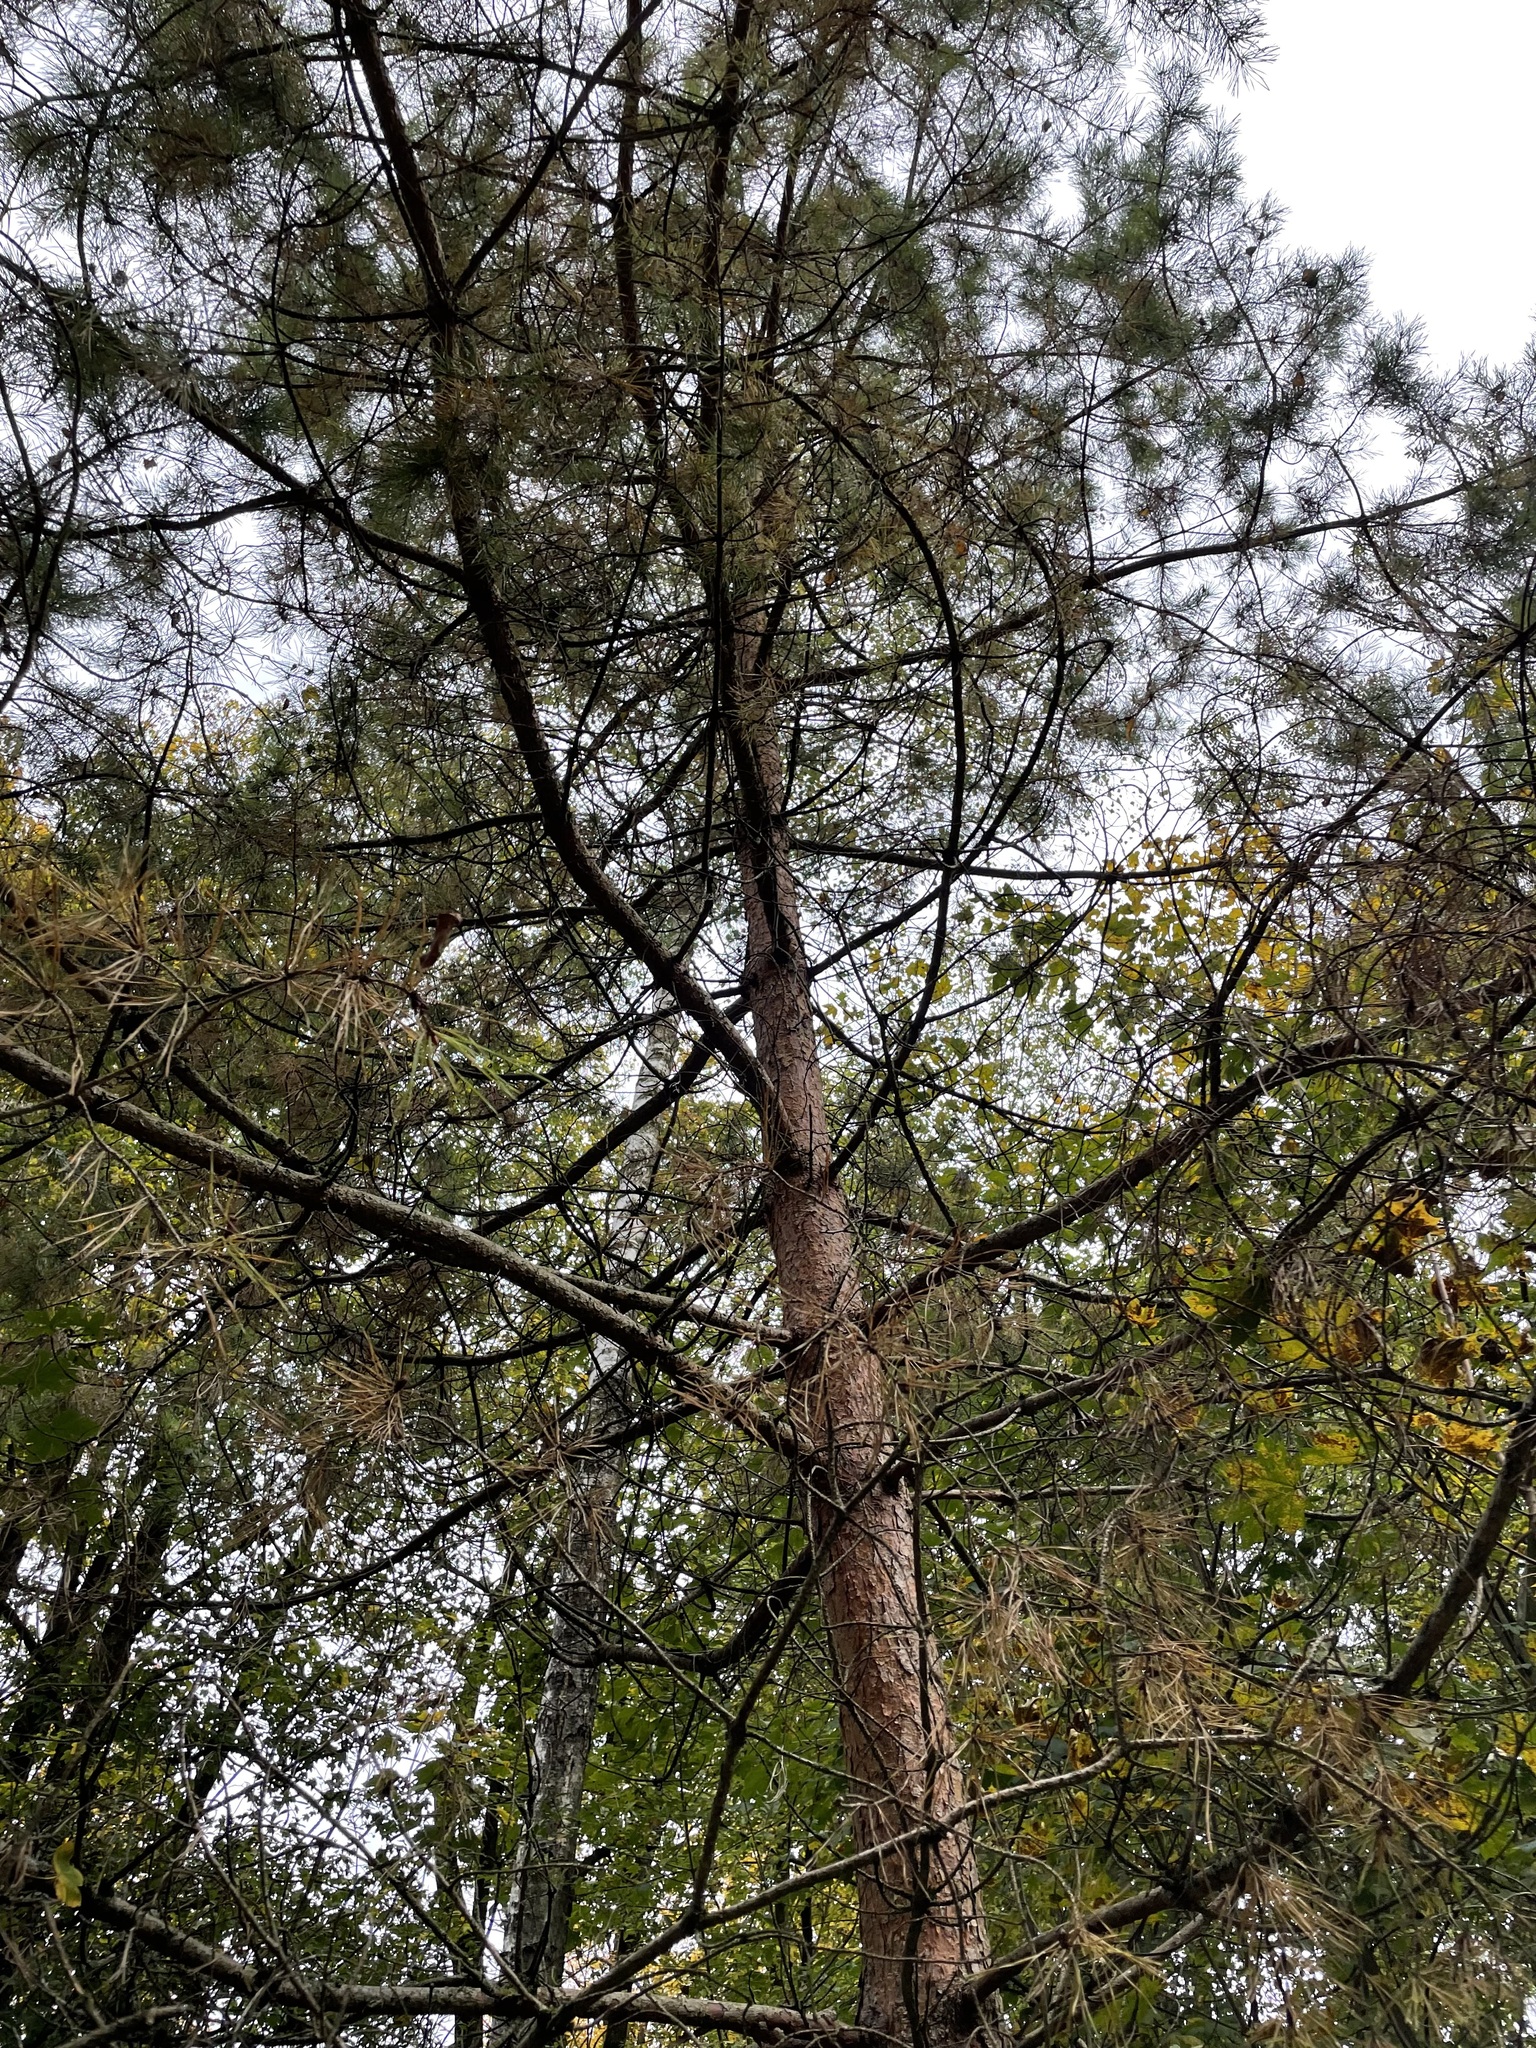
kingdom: Plantae
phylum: Tracheophyta
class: Pinopsida
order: Pinales
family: Pinaceae
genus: Pinus
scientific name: Pinus sylvestris
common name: Scots pine
